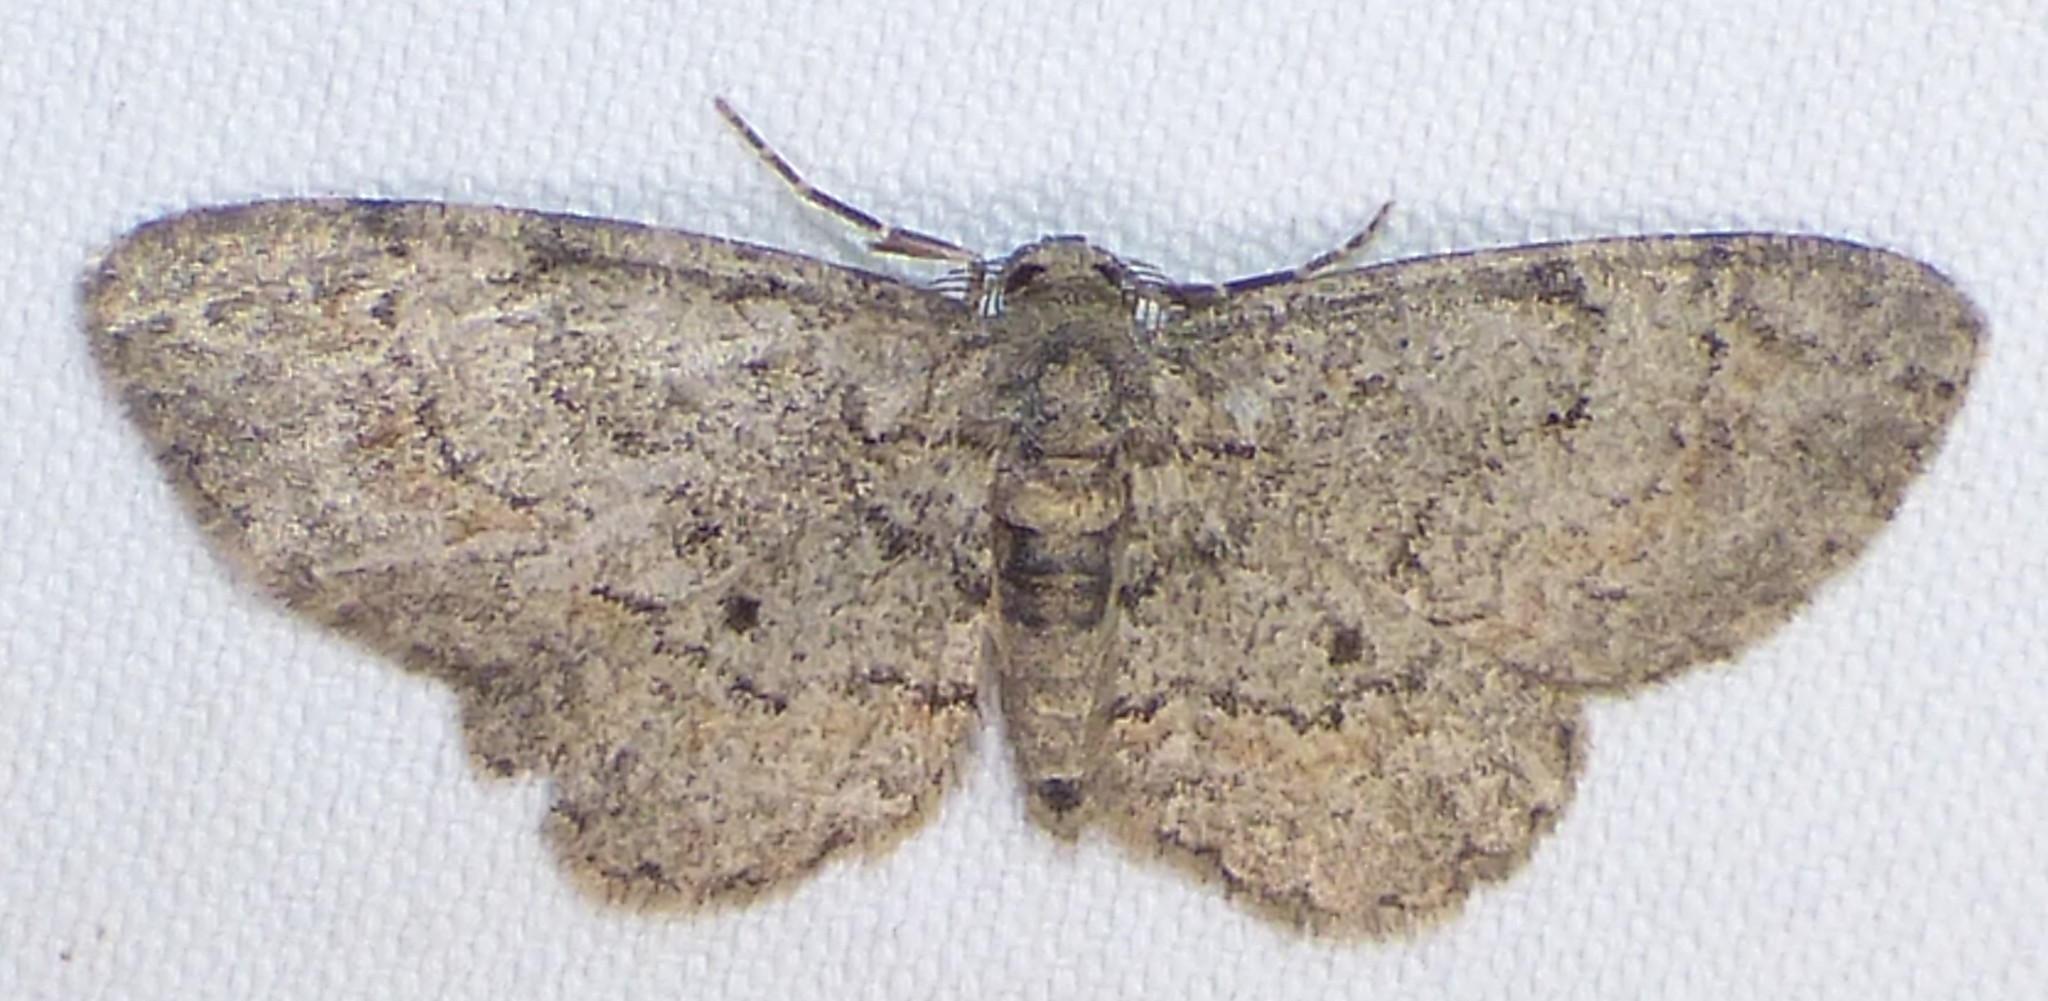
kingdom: Animalia
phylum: Arthropoda
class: Insecta
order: Lepidoptera
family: Geometridae
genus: Glenoides
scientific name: Glenoides texanaria
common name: Texas gray
